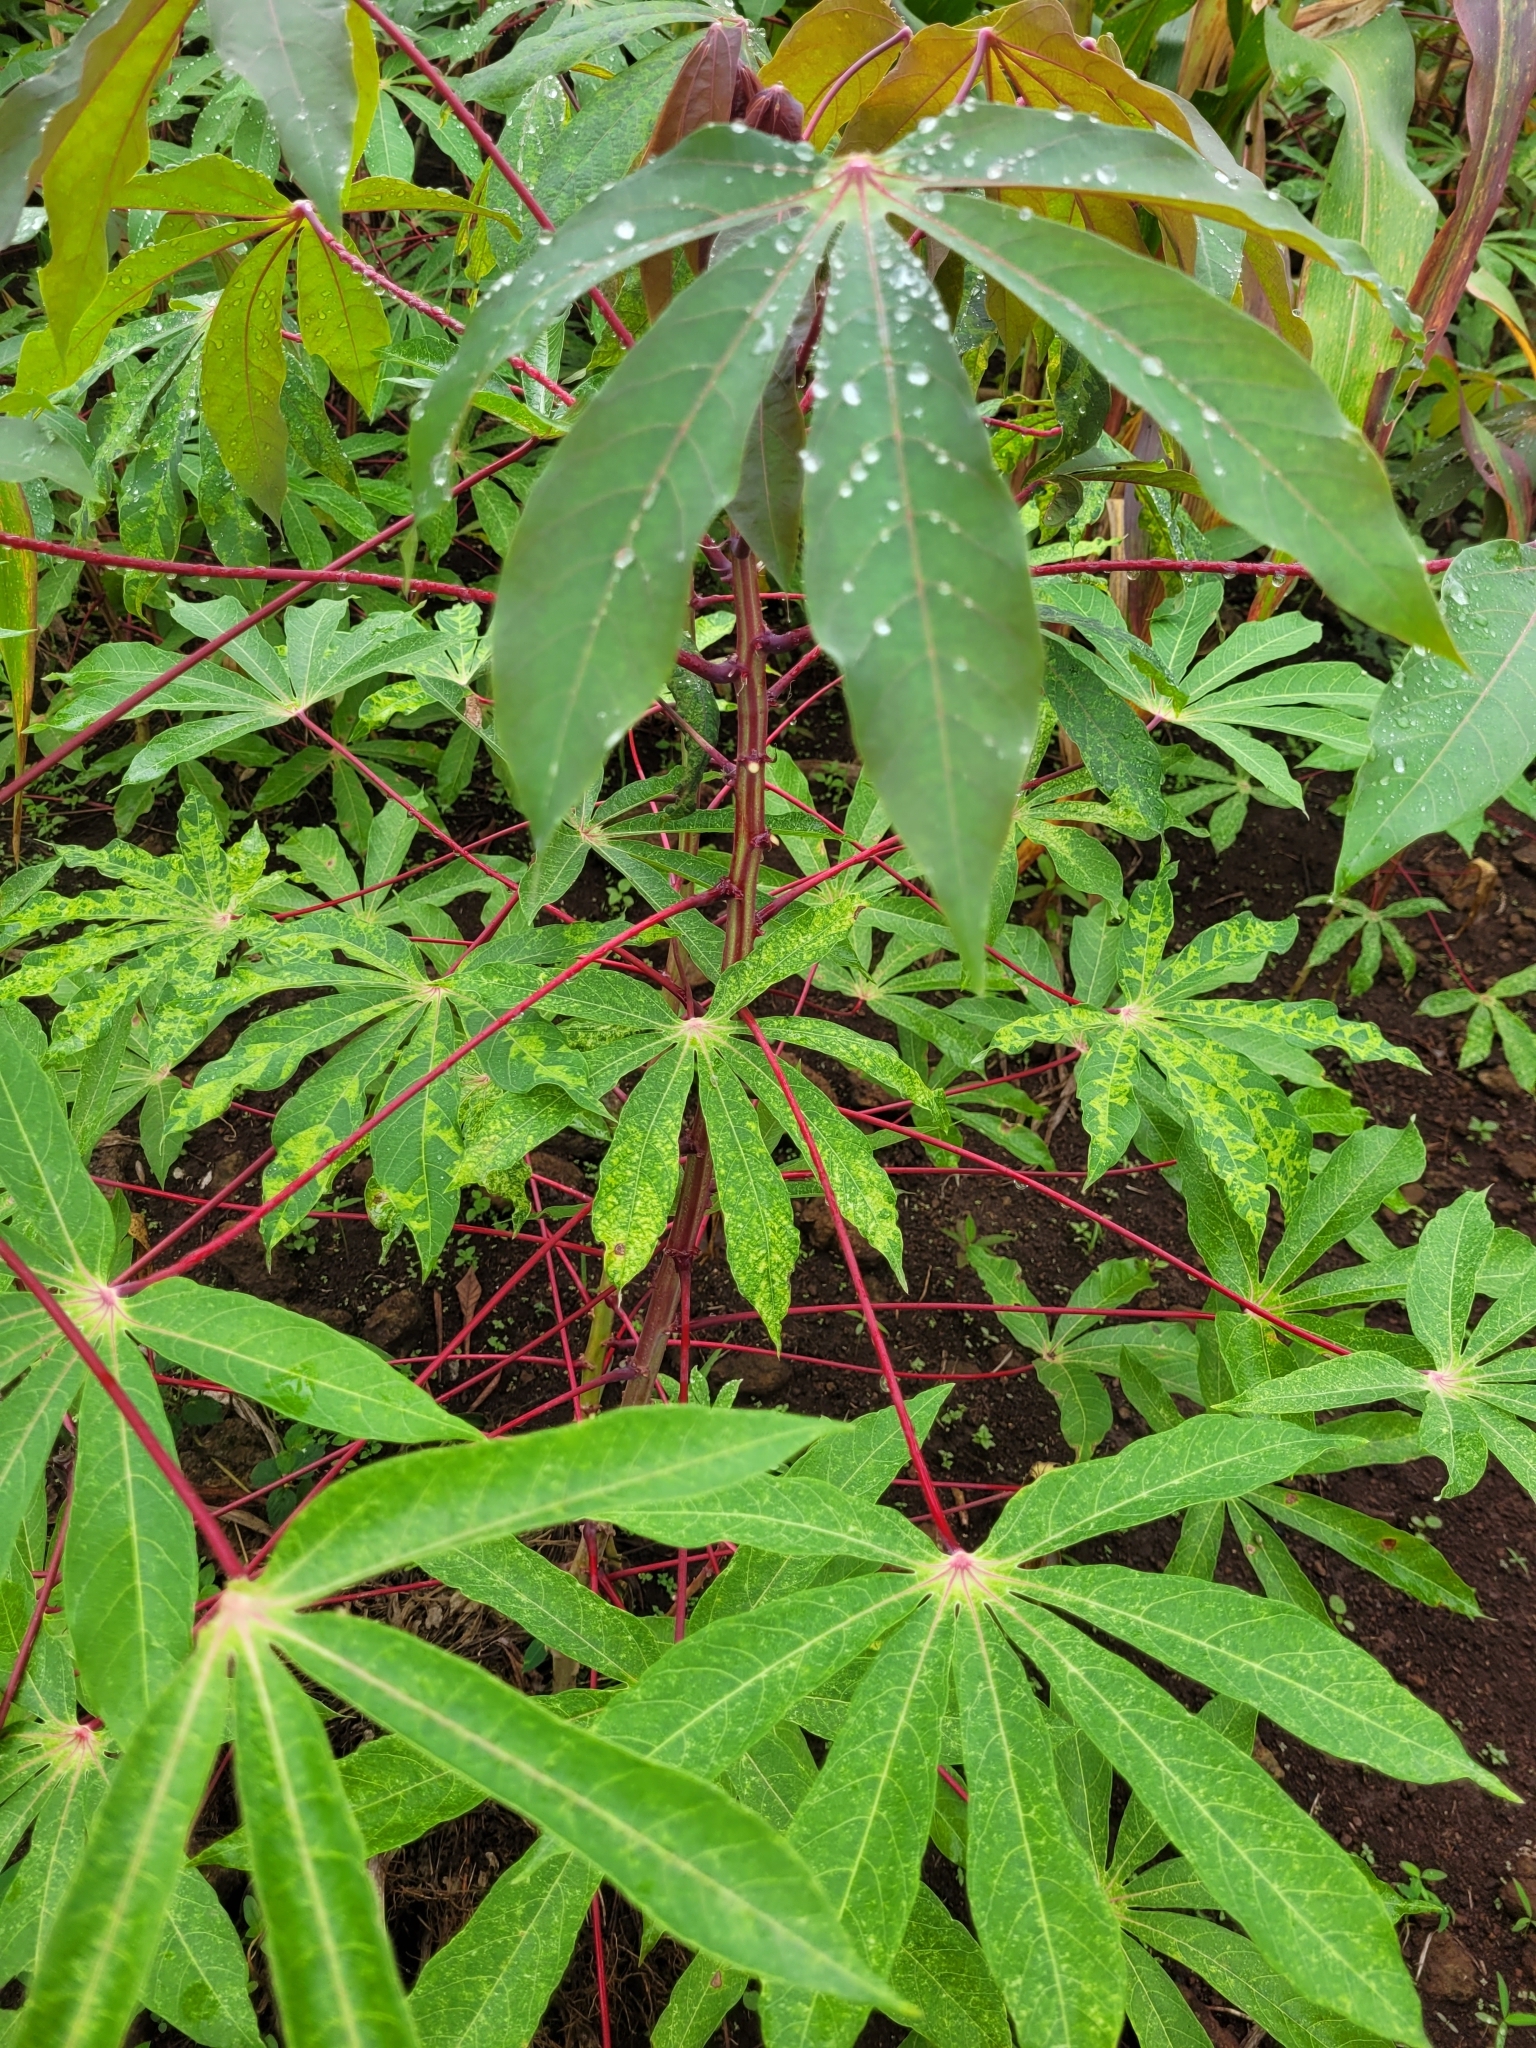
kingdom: Plantae
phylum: Tracheophyta
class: Magnoliopsida
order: Malpighiales
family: Euphorbiaceae
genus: Manihot
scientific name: Manihot esculenta
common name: Cassava
